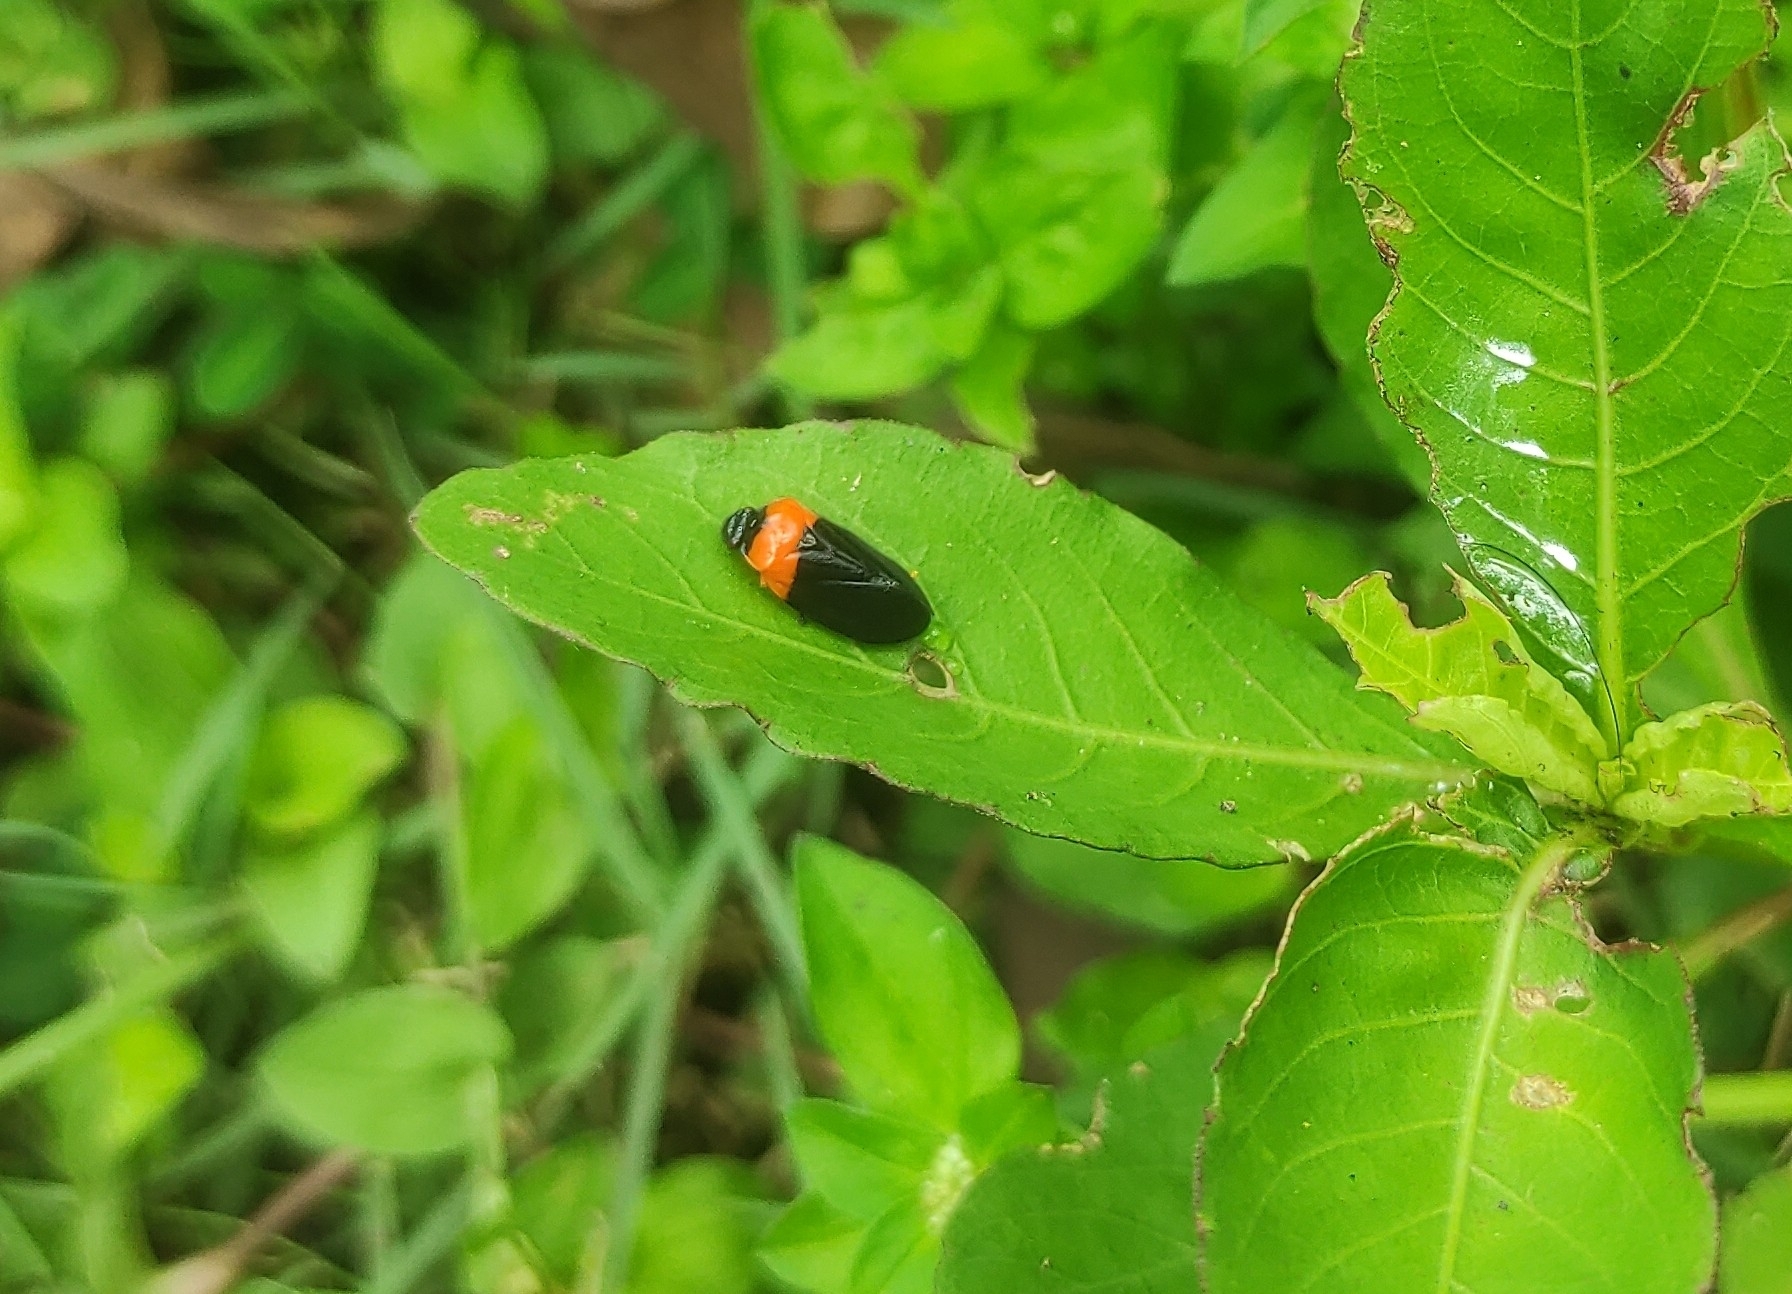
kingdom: Animalia
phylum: Arthropoda
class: Insecta
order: Hemiptera
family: Cercopidae
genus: Phymatostetha
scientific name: Phymatostetha deschampsi
